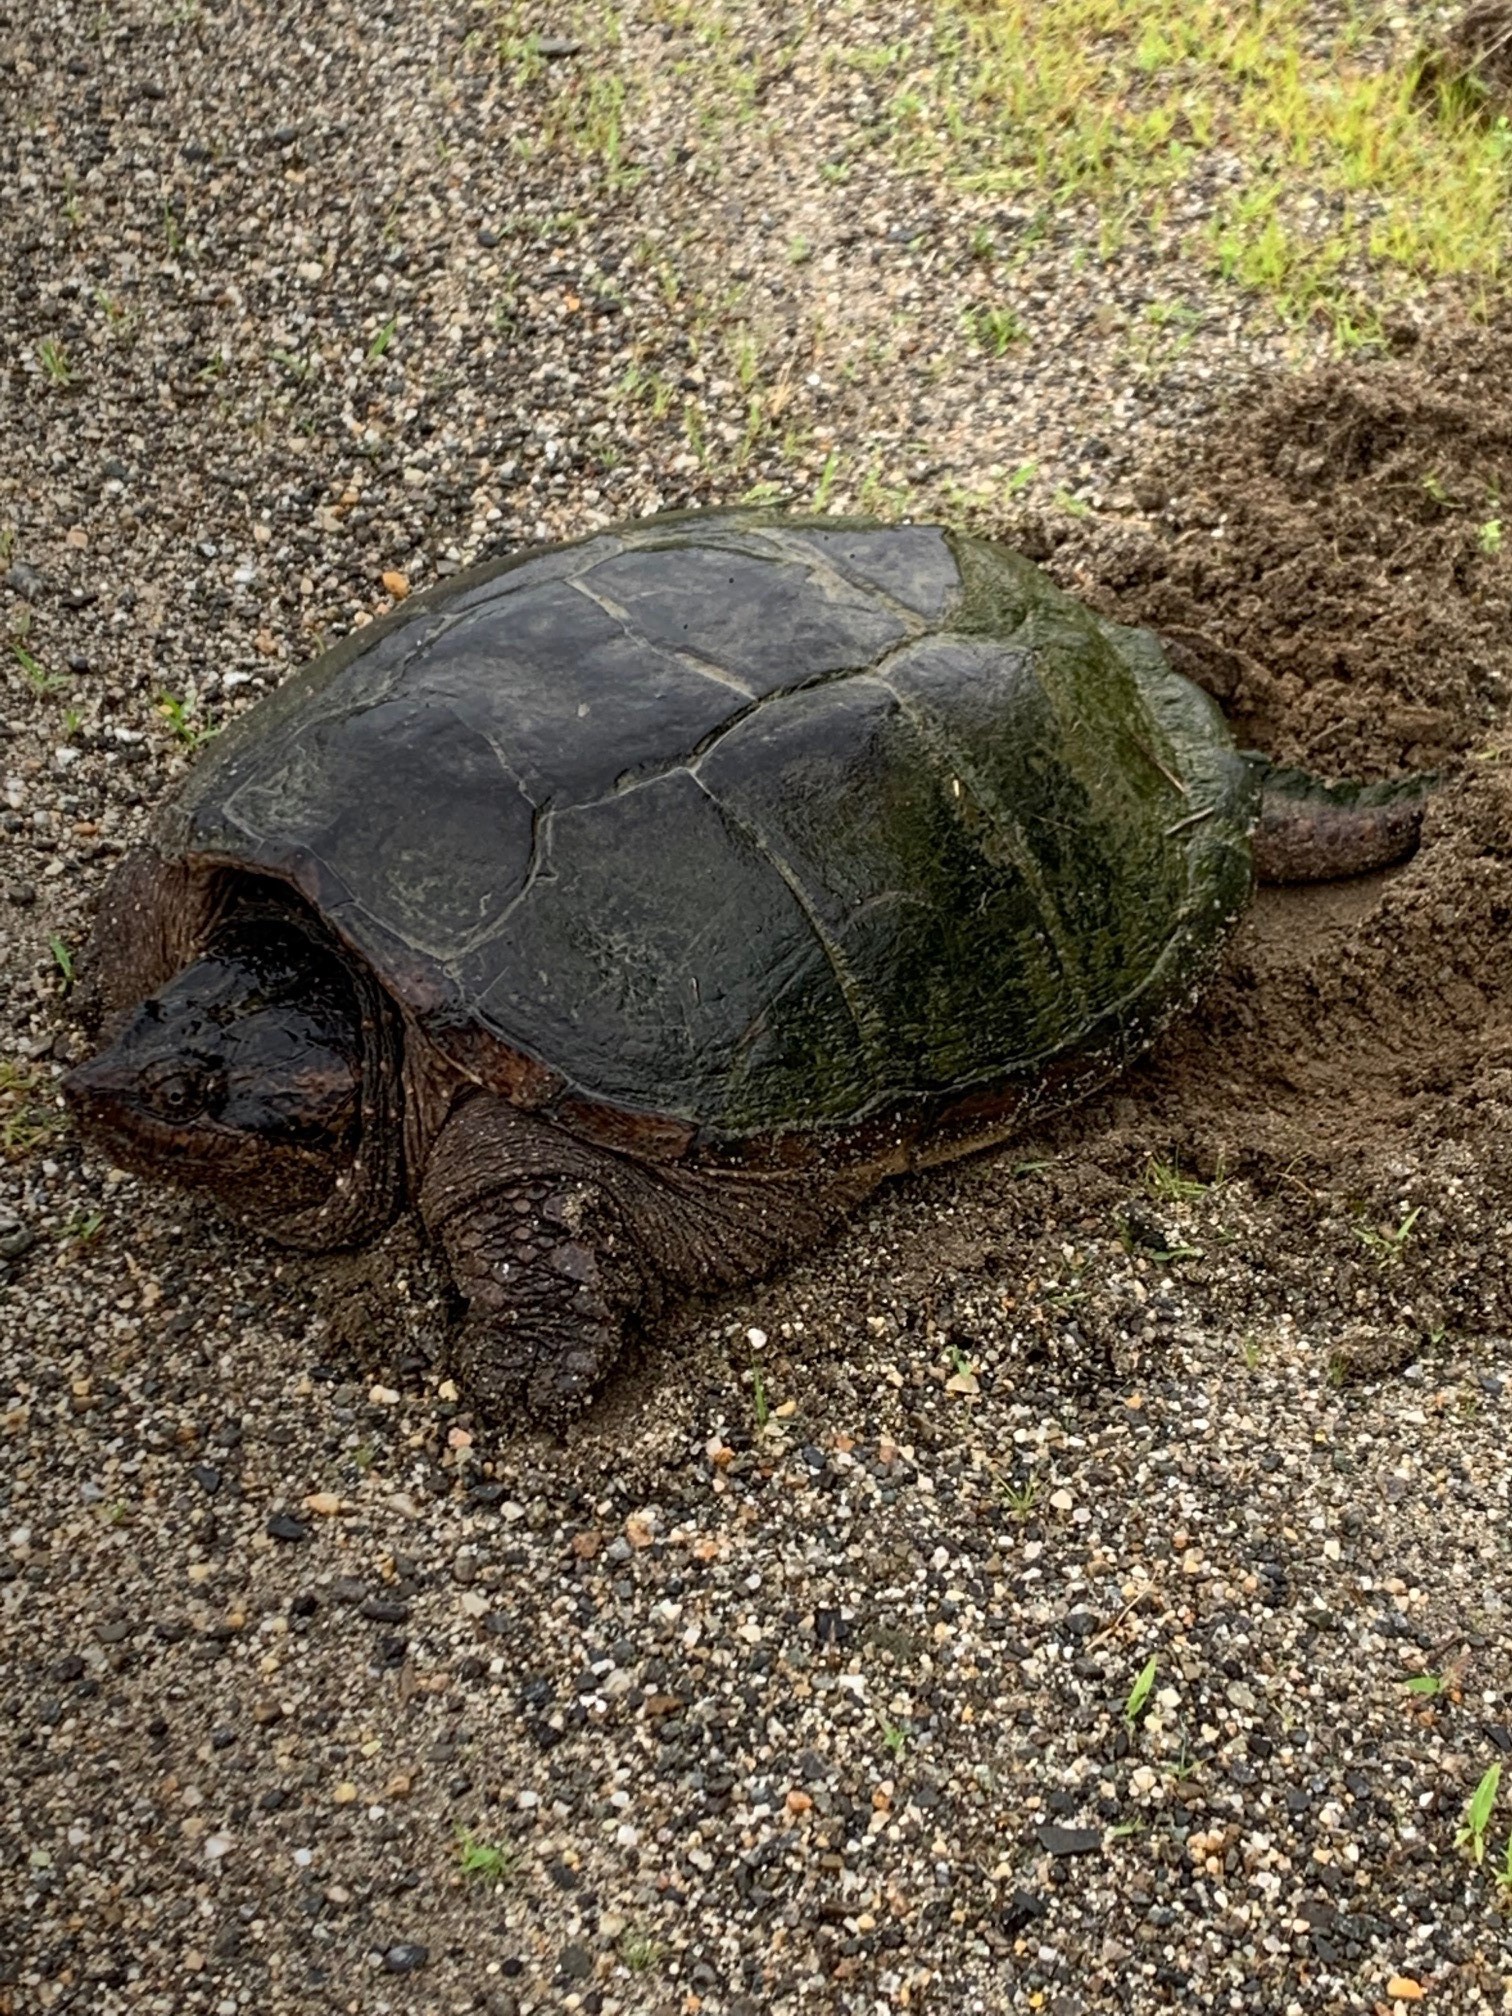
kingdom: Animalia
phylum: Chordata
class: Testudines
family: Chelydridae
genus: Chelydra
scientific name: Chelydra serpentina
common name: Common snapping turtle
